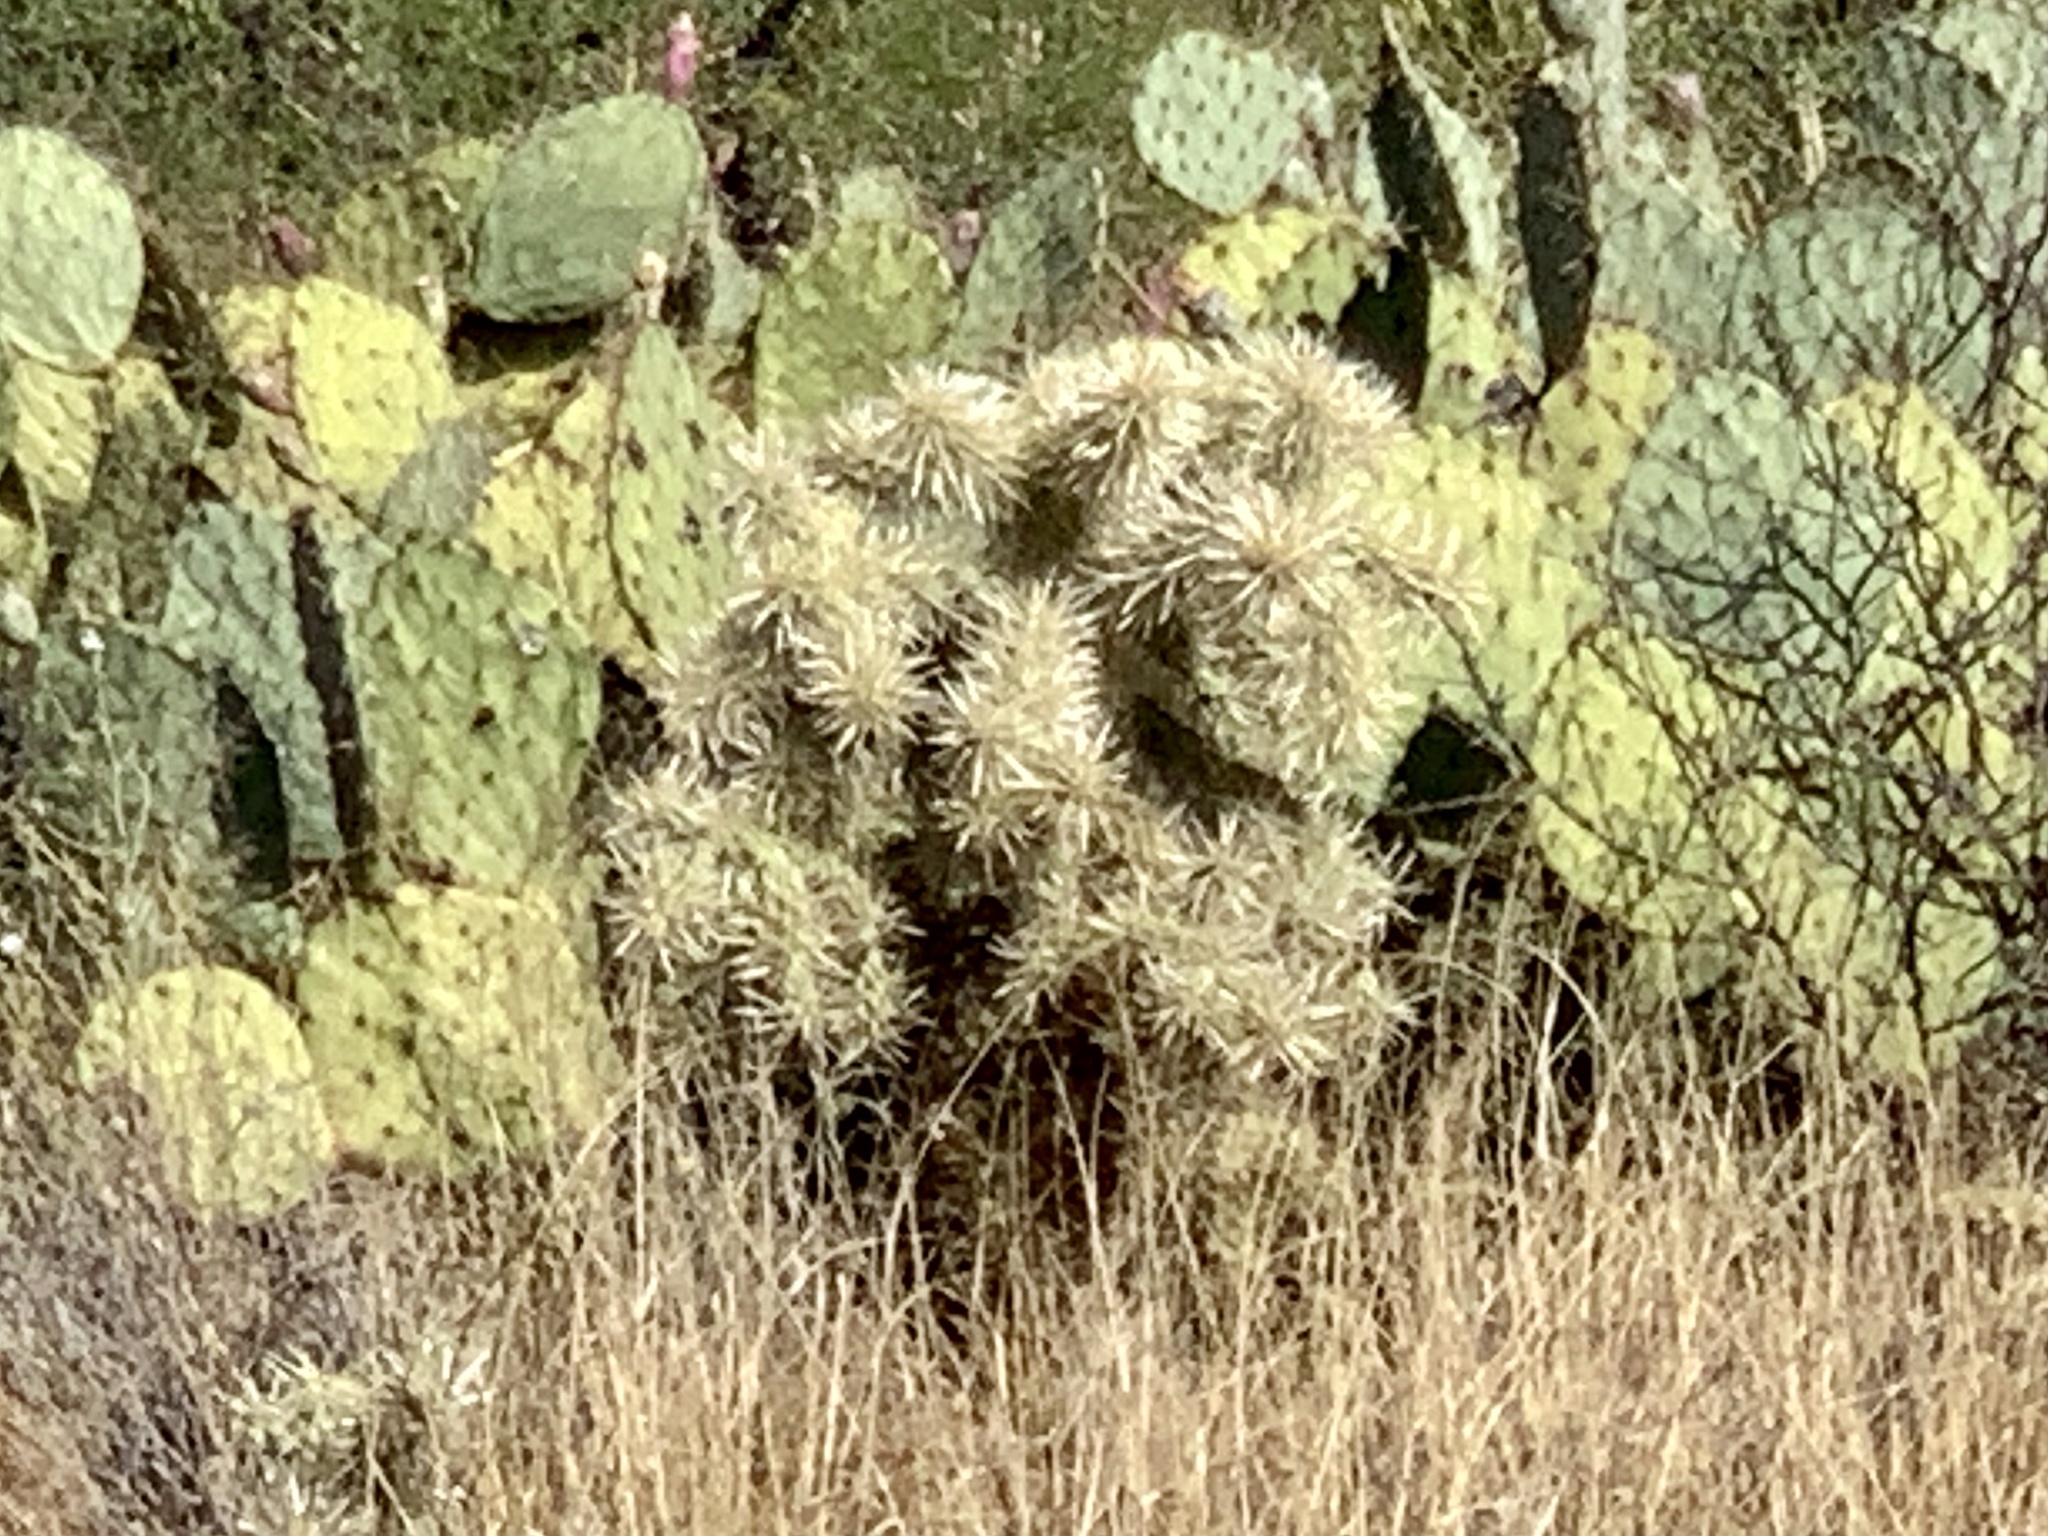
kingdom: Plantae
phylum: Tracheophyta
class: Magnoliopsida
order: Caryophyllales
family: Cactaceae
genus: Cylindropuntia
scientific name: Cylindropuntia fulgida
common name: Jumping cholla
